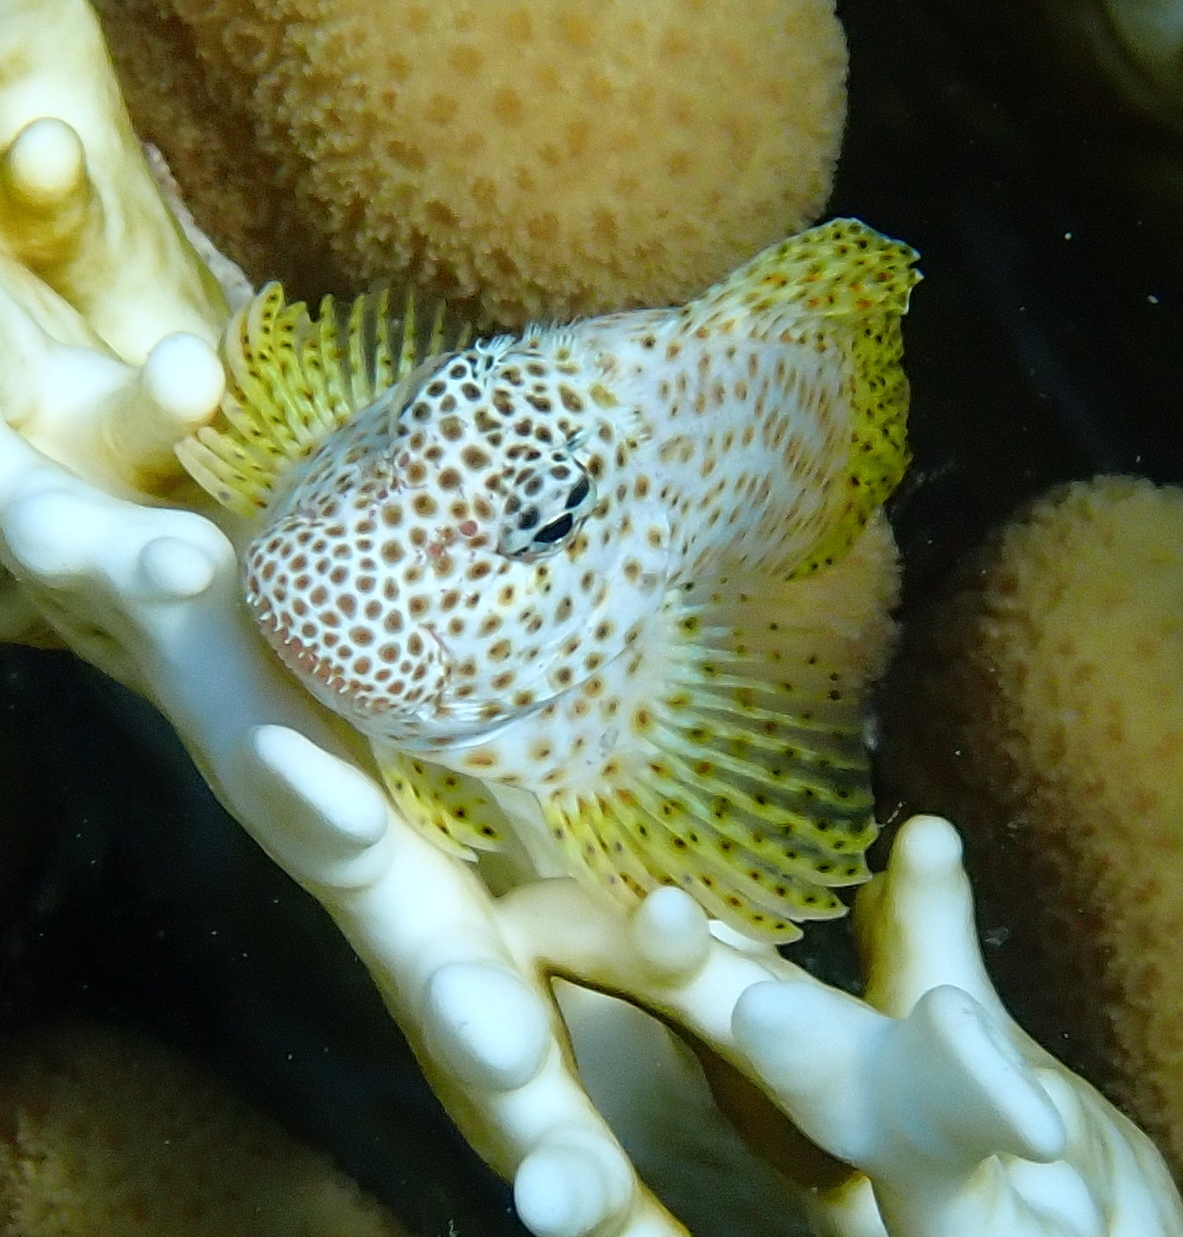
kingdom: Animalia
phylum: Chordata
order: Perciformes
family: Blenniidae
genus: Exallias
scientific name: Exallias brevis
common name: Leopard blenny
